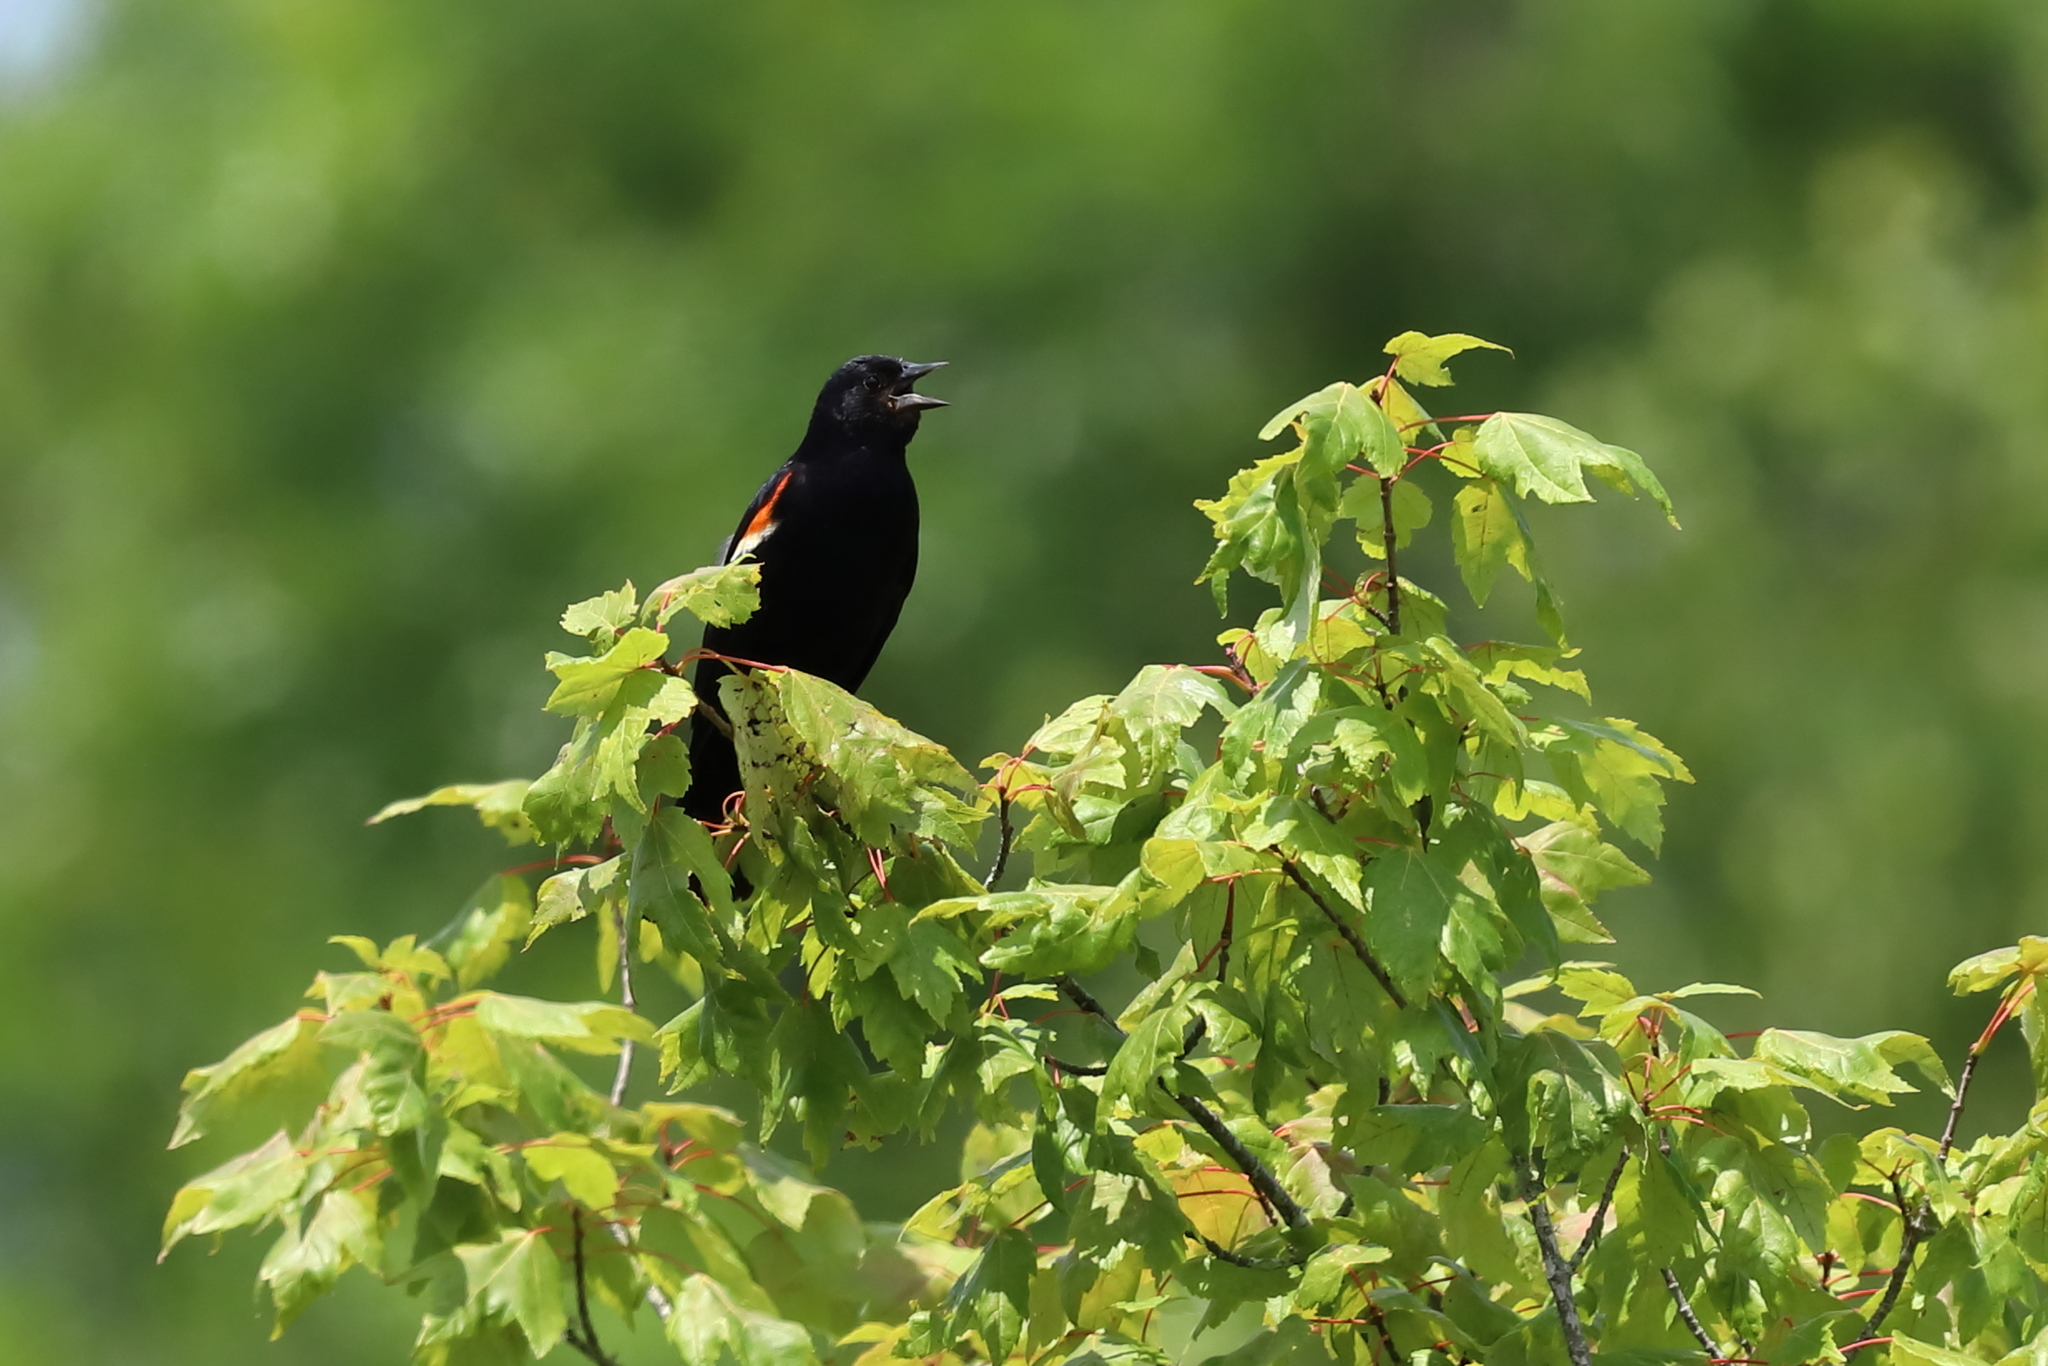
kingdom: Animalia
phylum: Chordata
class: Aves
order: Passeriformes
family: Icteridae
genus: Agelaius
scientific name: Agelaius phoeniceus
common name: Red-winged blackbird
